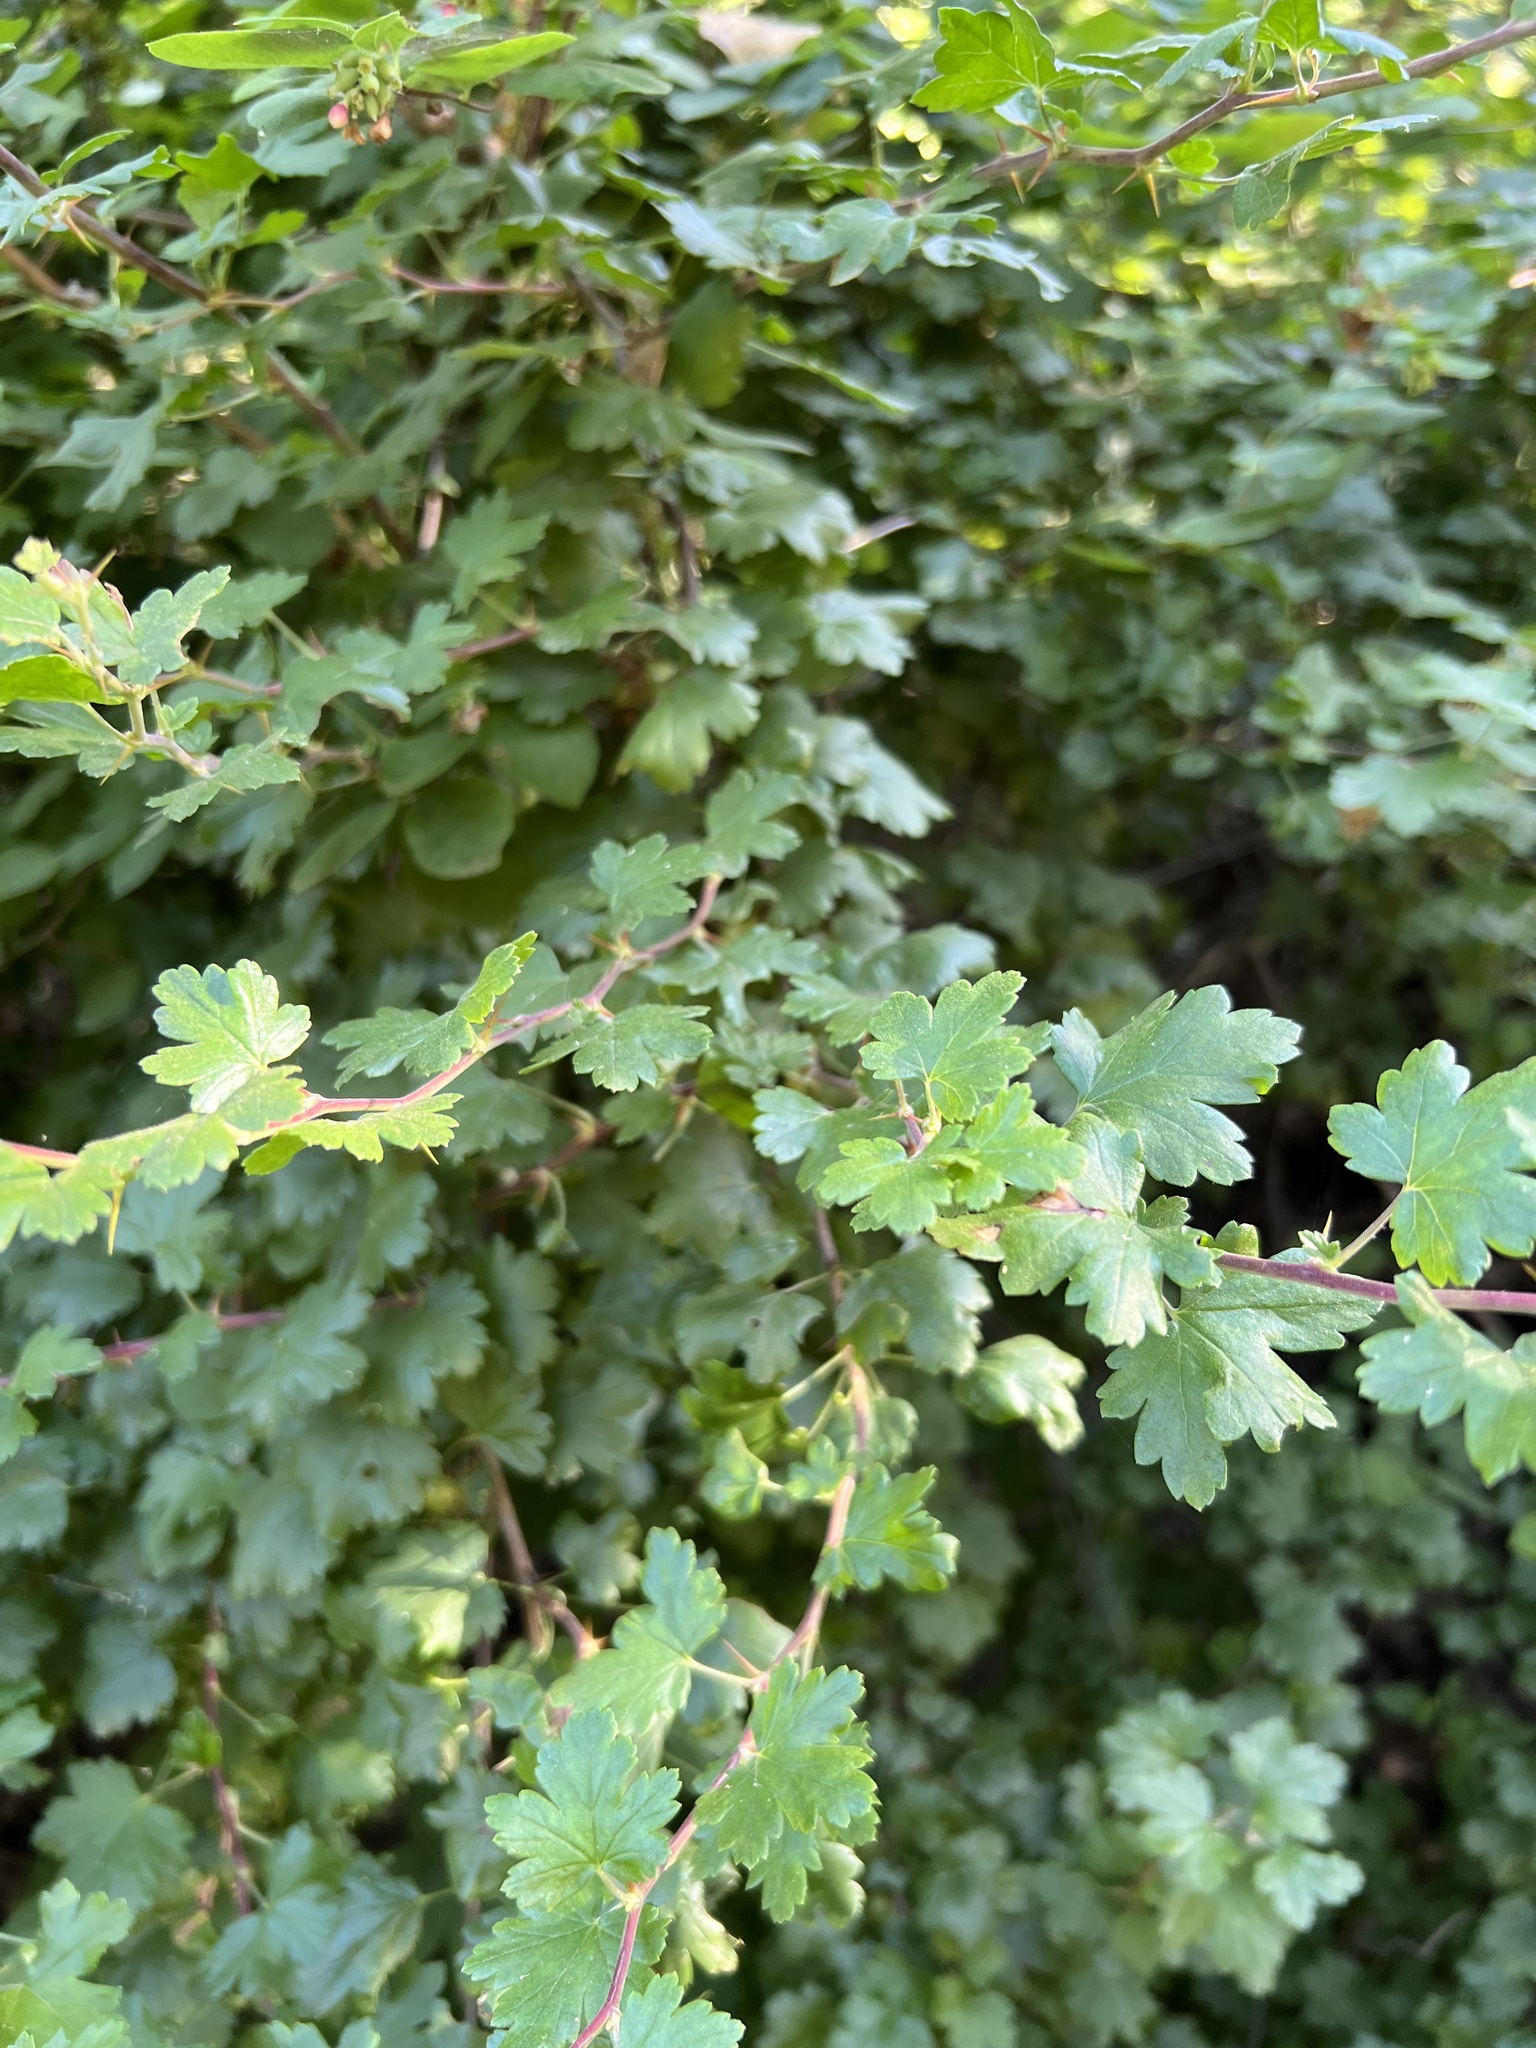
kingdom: Plantae
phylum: Tracheophyta
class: Magnoliopsida
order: Saxifragales
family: Grossulariaceae
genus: Ribes
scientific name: Ribes californicum
